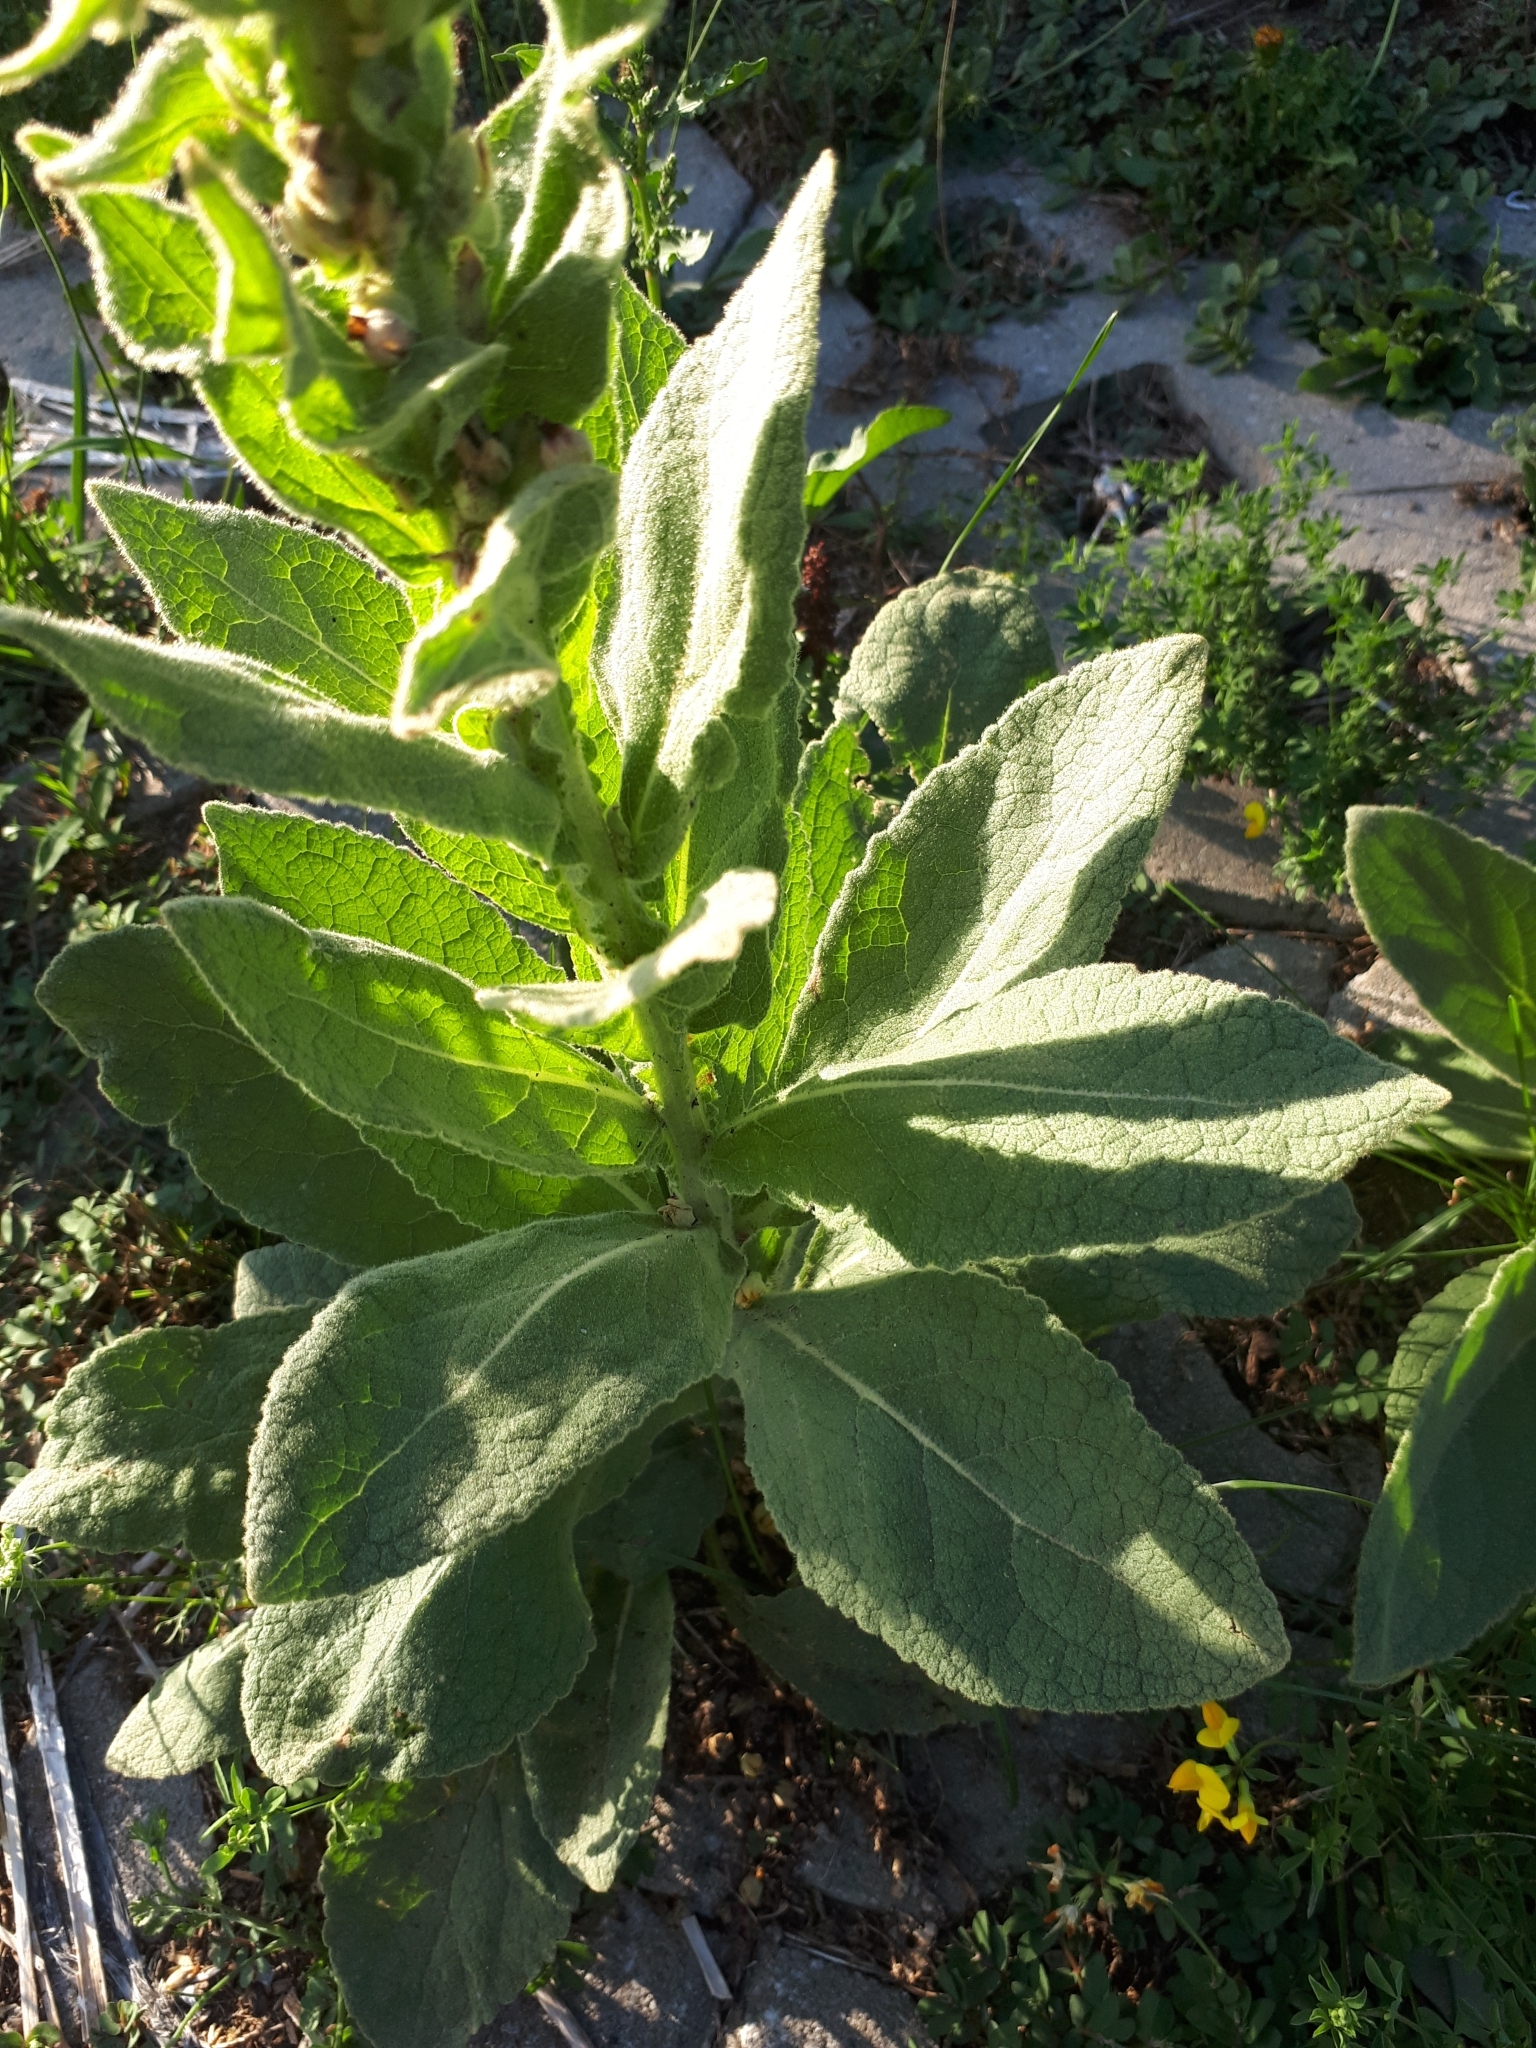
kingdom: Plantae
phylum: Tracheophyta
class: Magnoliopsida
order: Lamiales
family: Scrophulariaceae
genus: Verbascum
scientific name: Verbascum thapsus
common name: Common mullein
